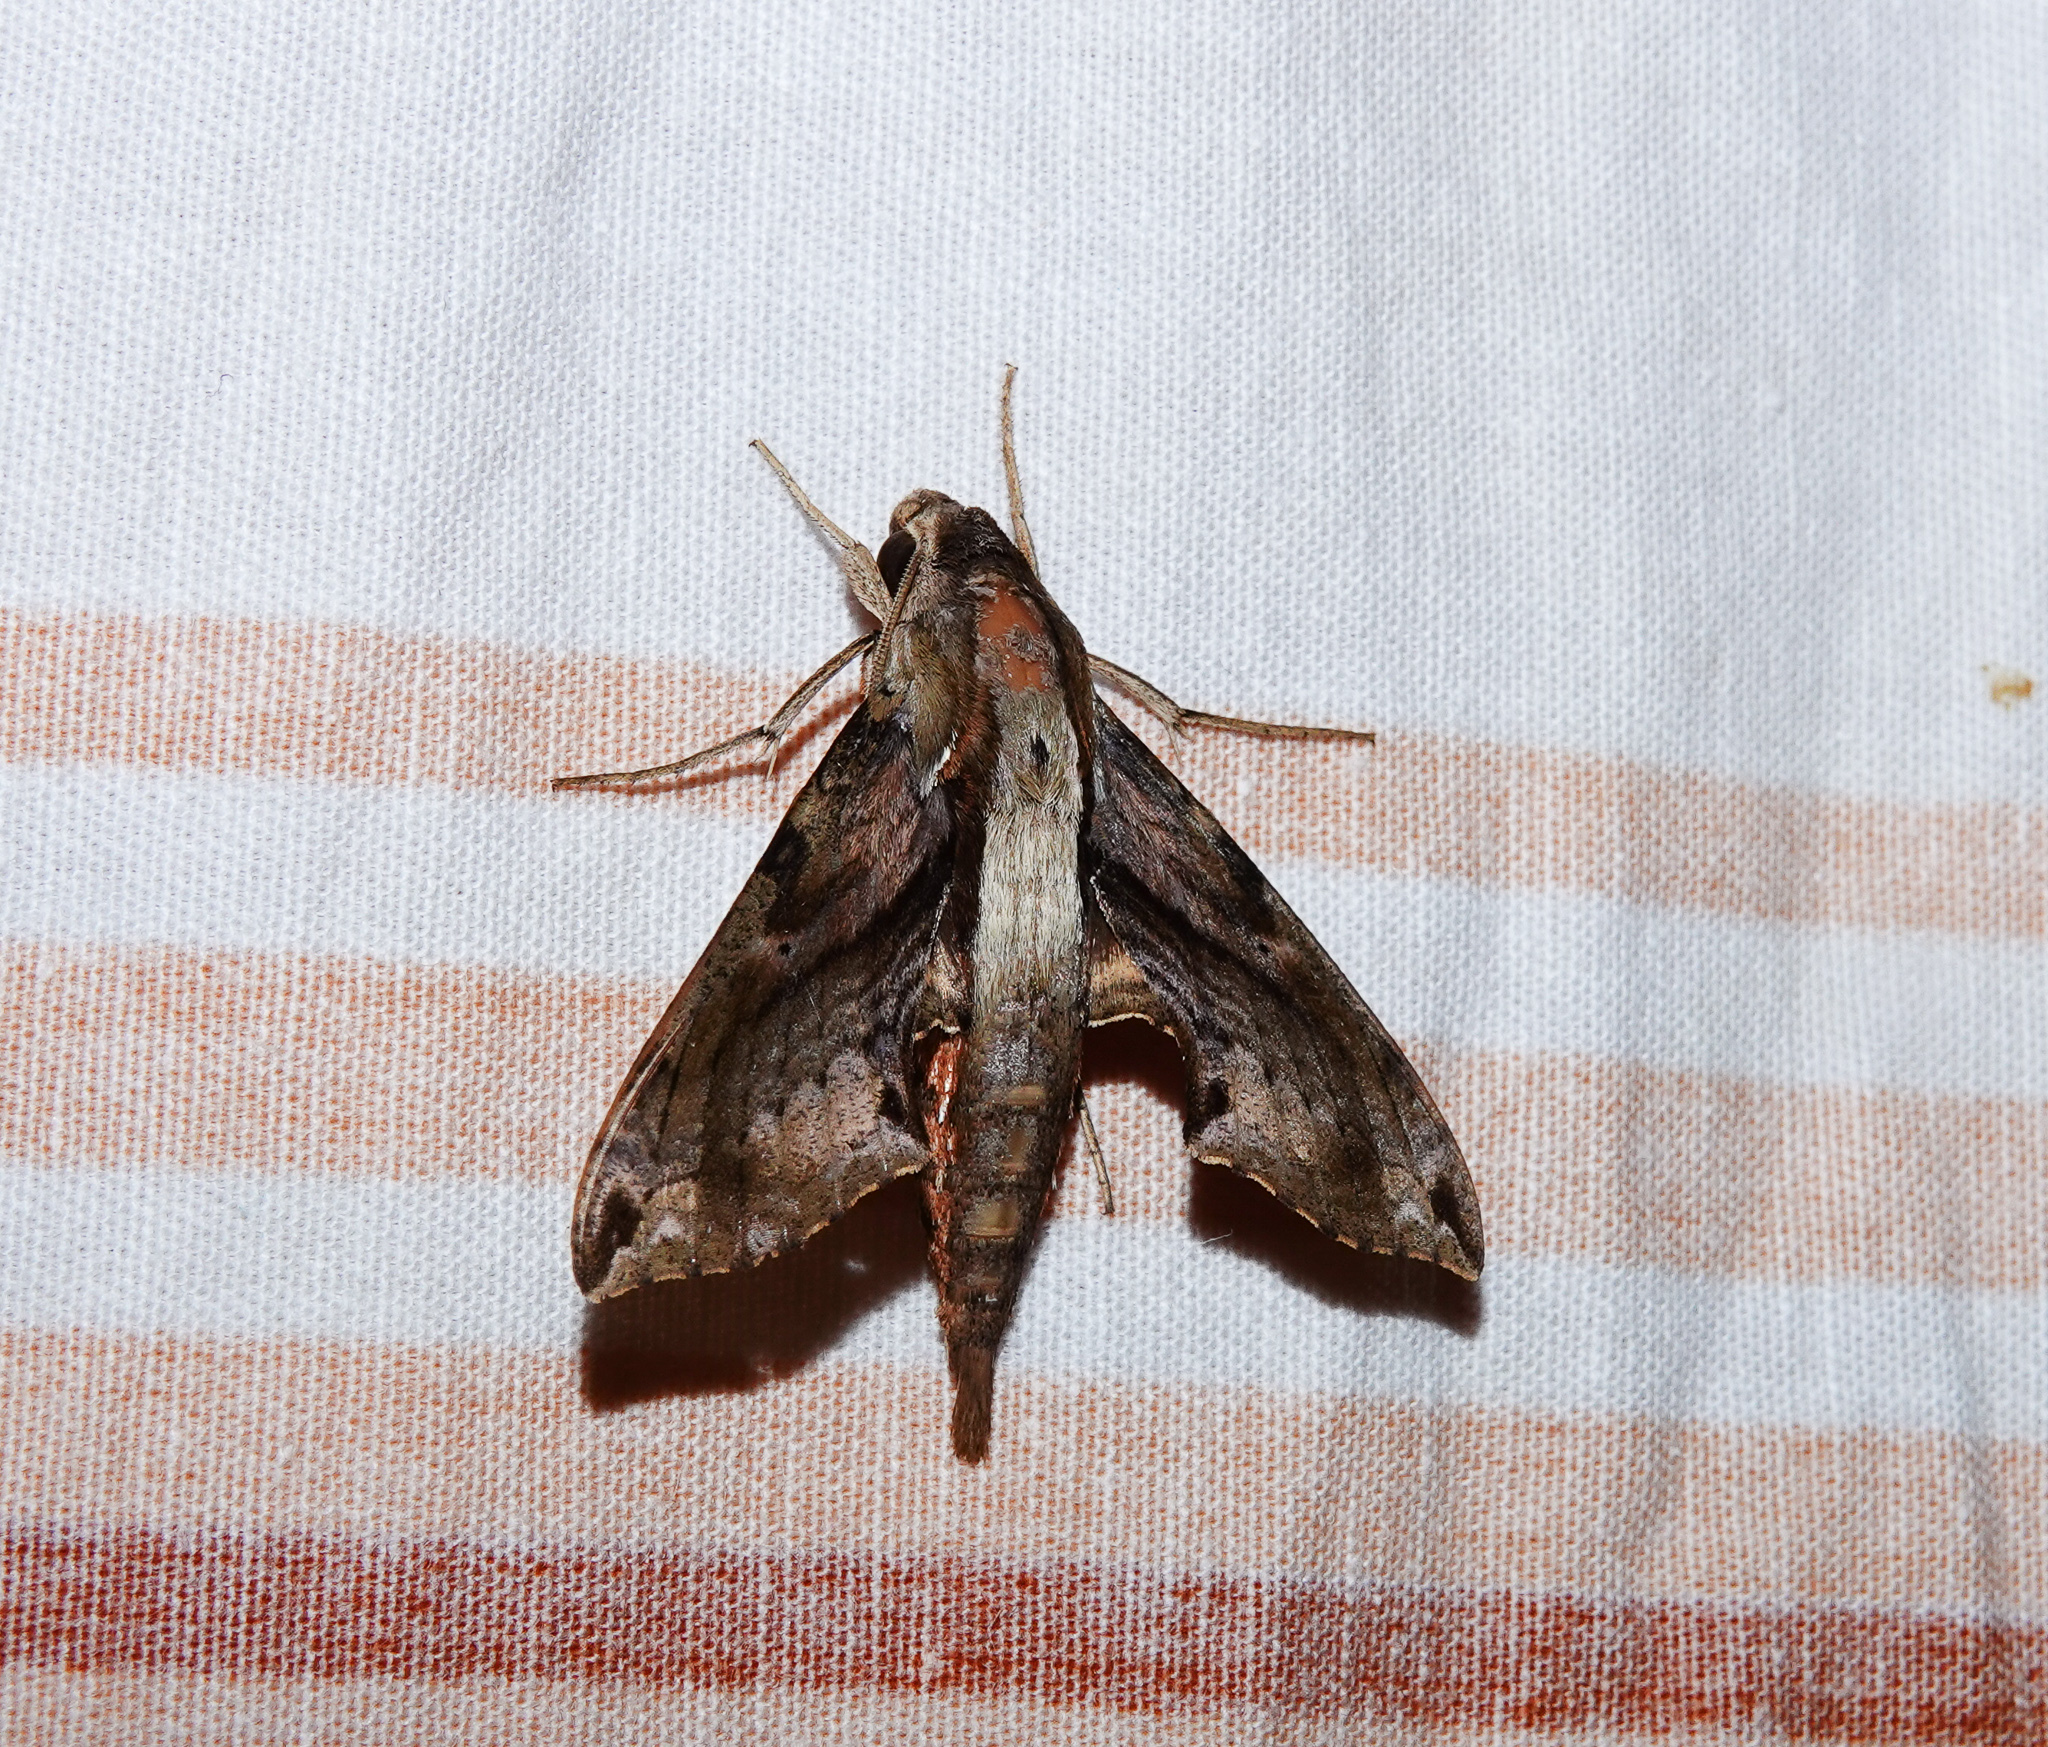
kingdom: Animalia
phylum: Arthropoda
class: Insecta
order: Lepidoptera
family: Sphingidae
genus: Eupanacra
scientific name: Eupanacra mydon
